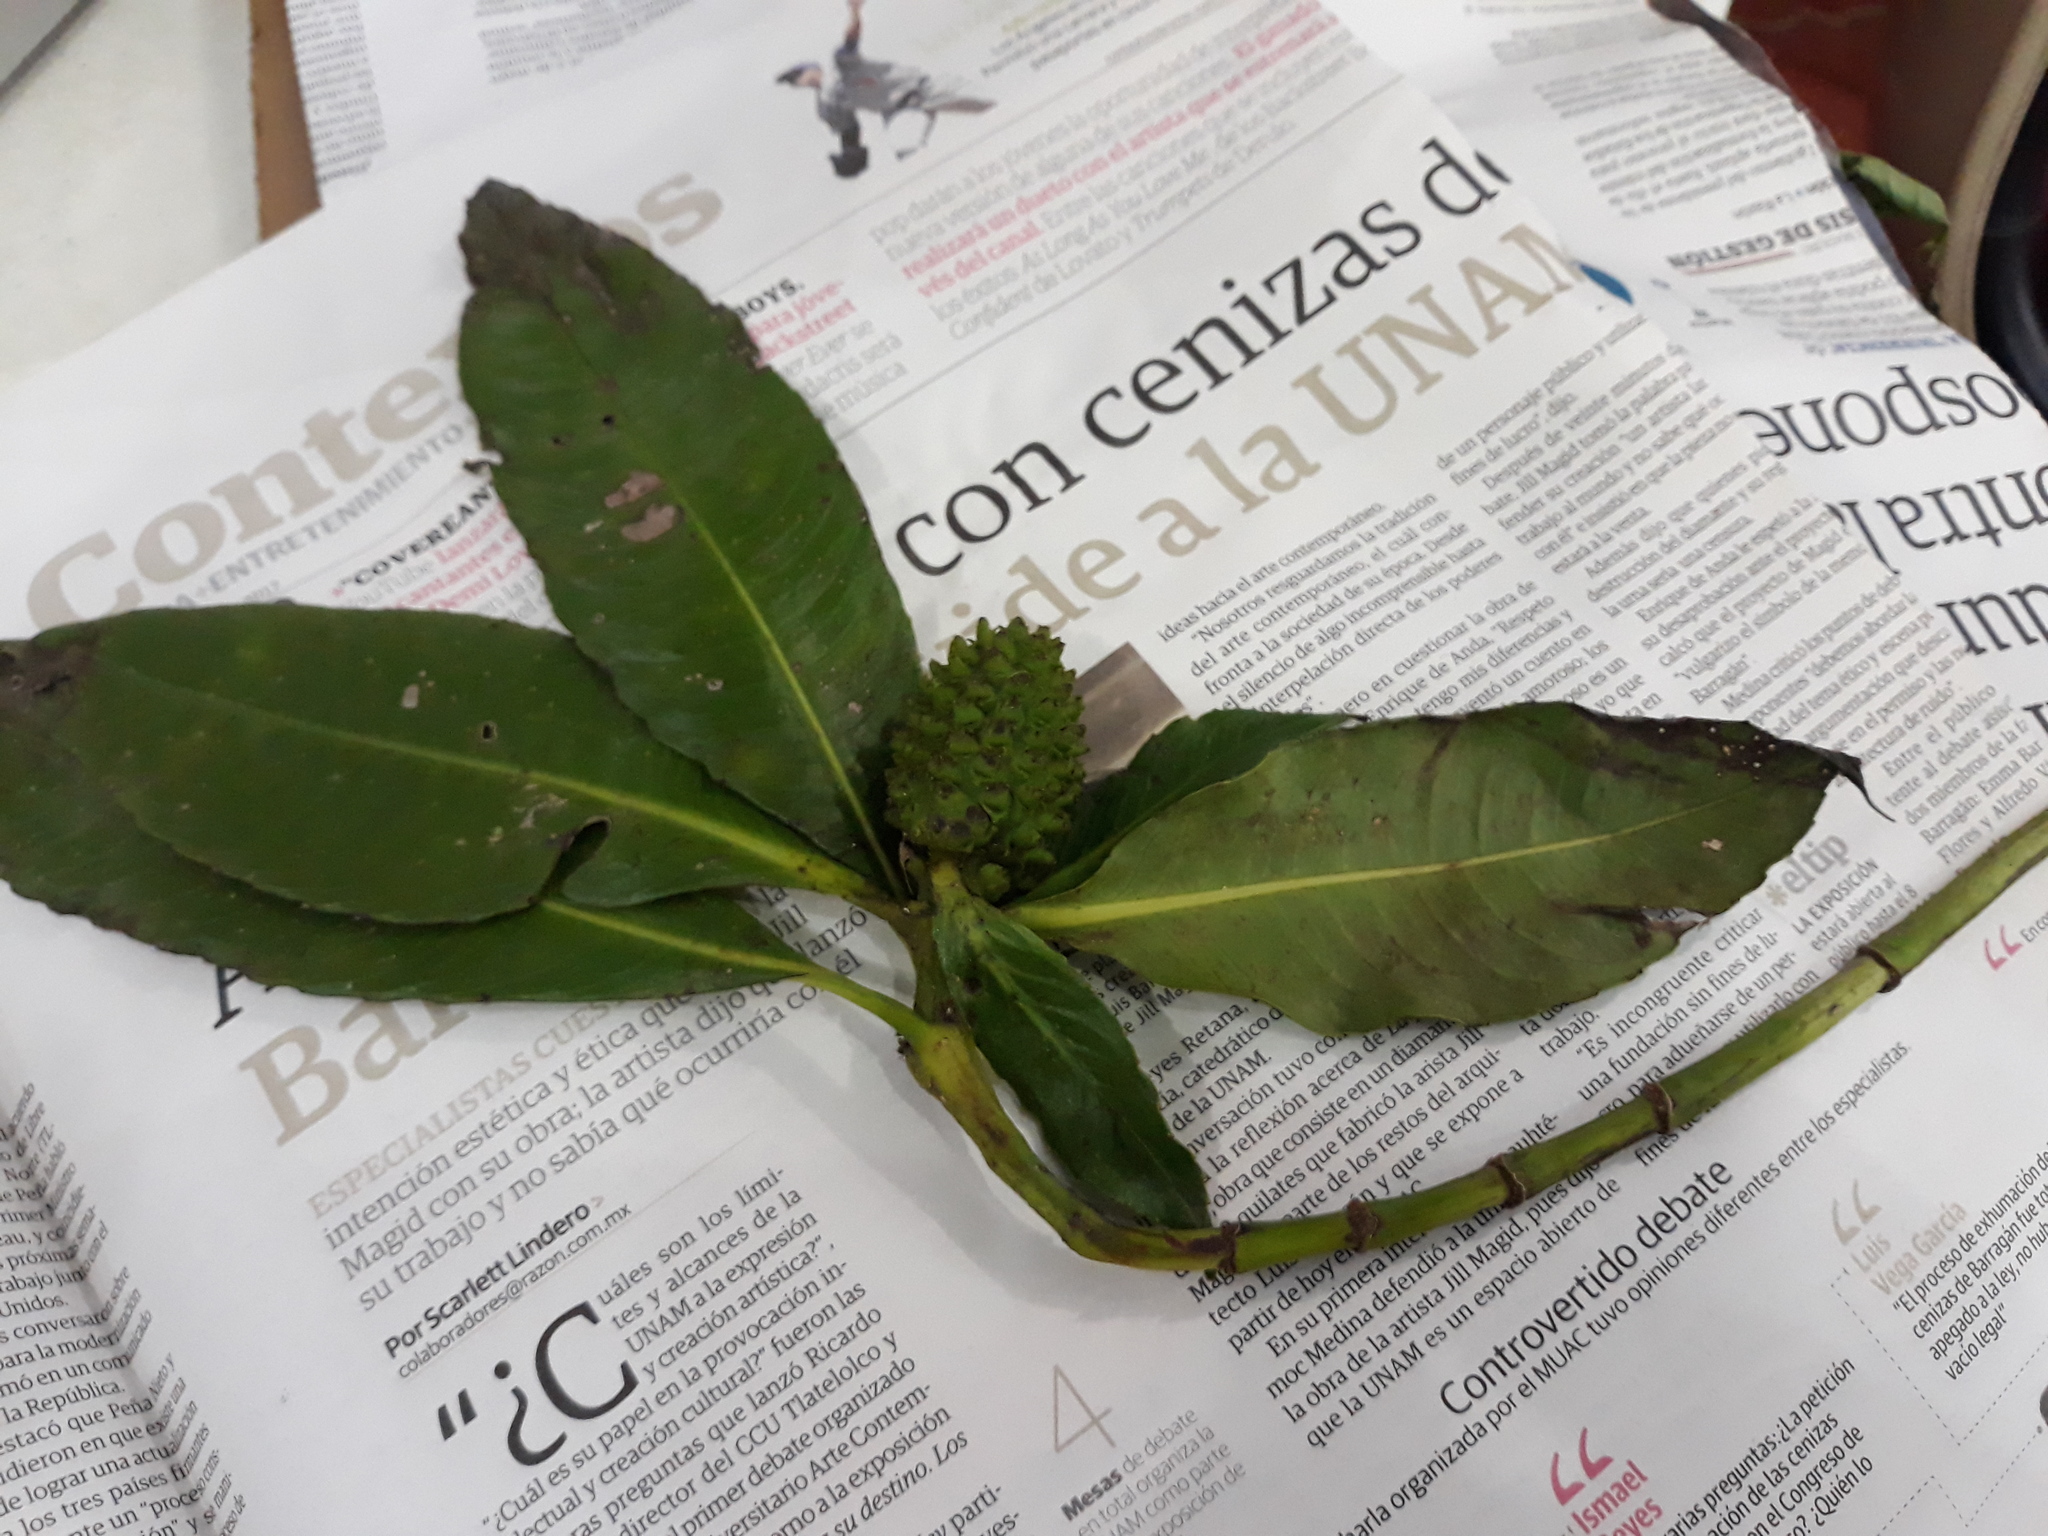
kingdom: Plantae
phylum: Tracheophyta
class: Magnoliopsida
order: Chloranthales
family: Chloranthaceae
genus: Hedyosmum
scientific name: Hedyosmum mexicanum
